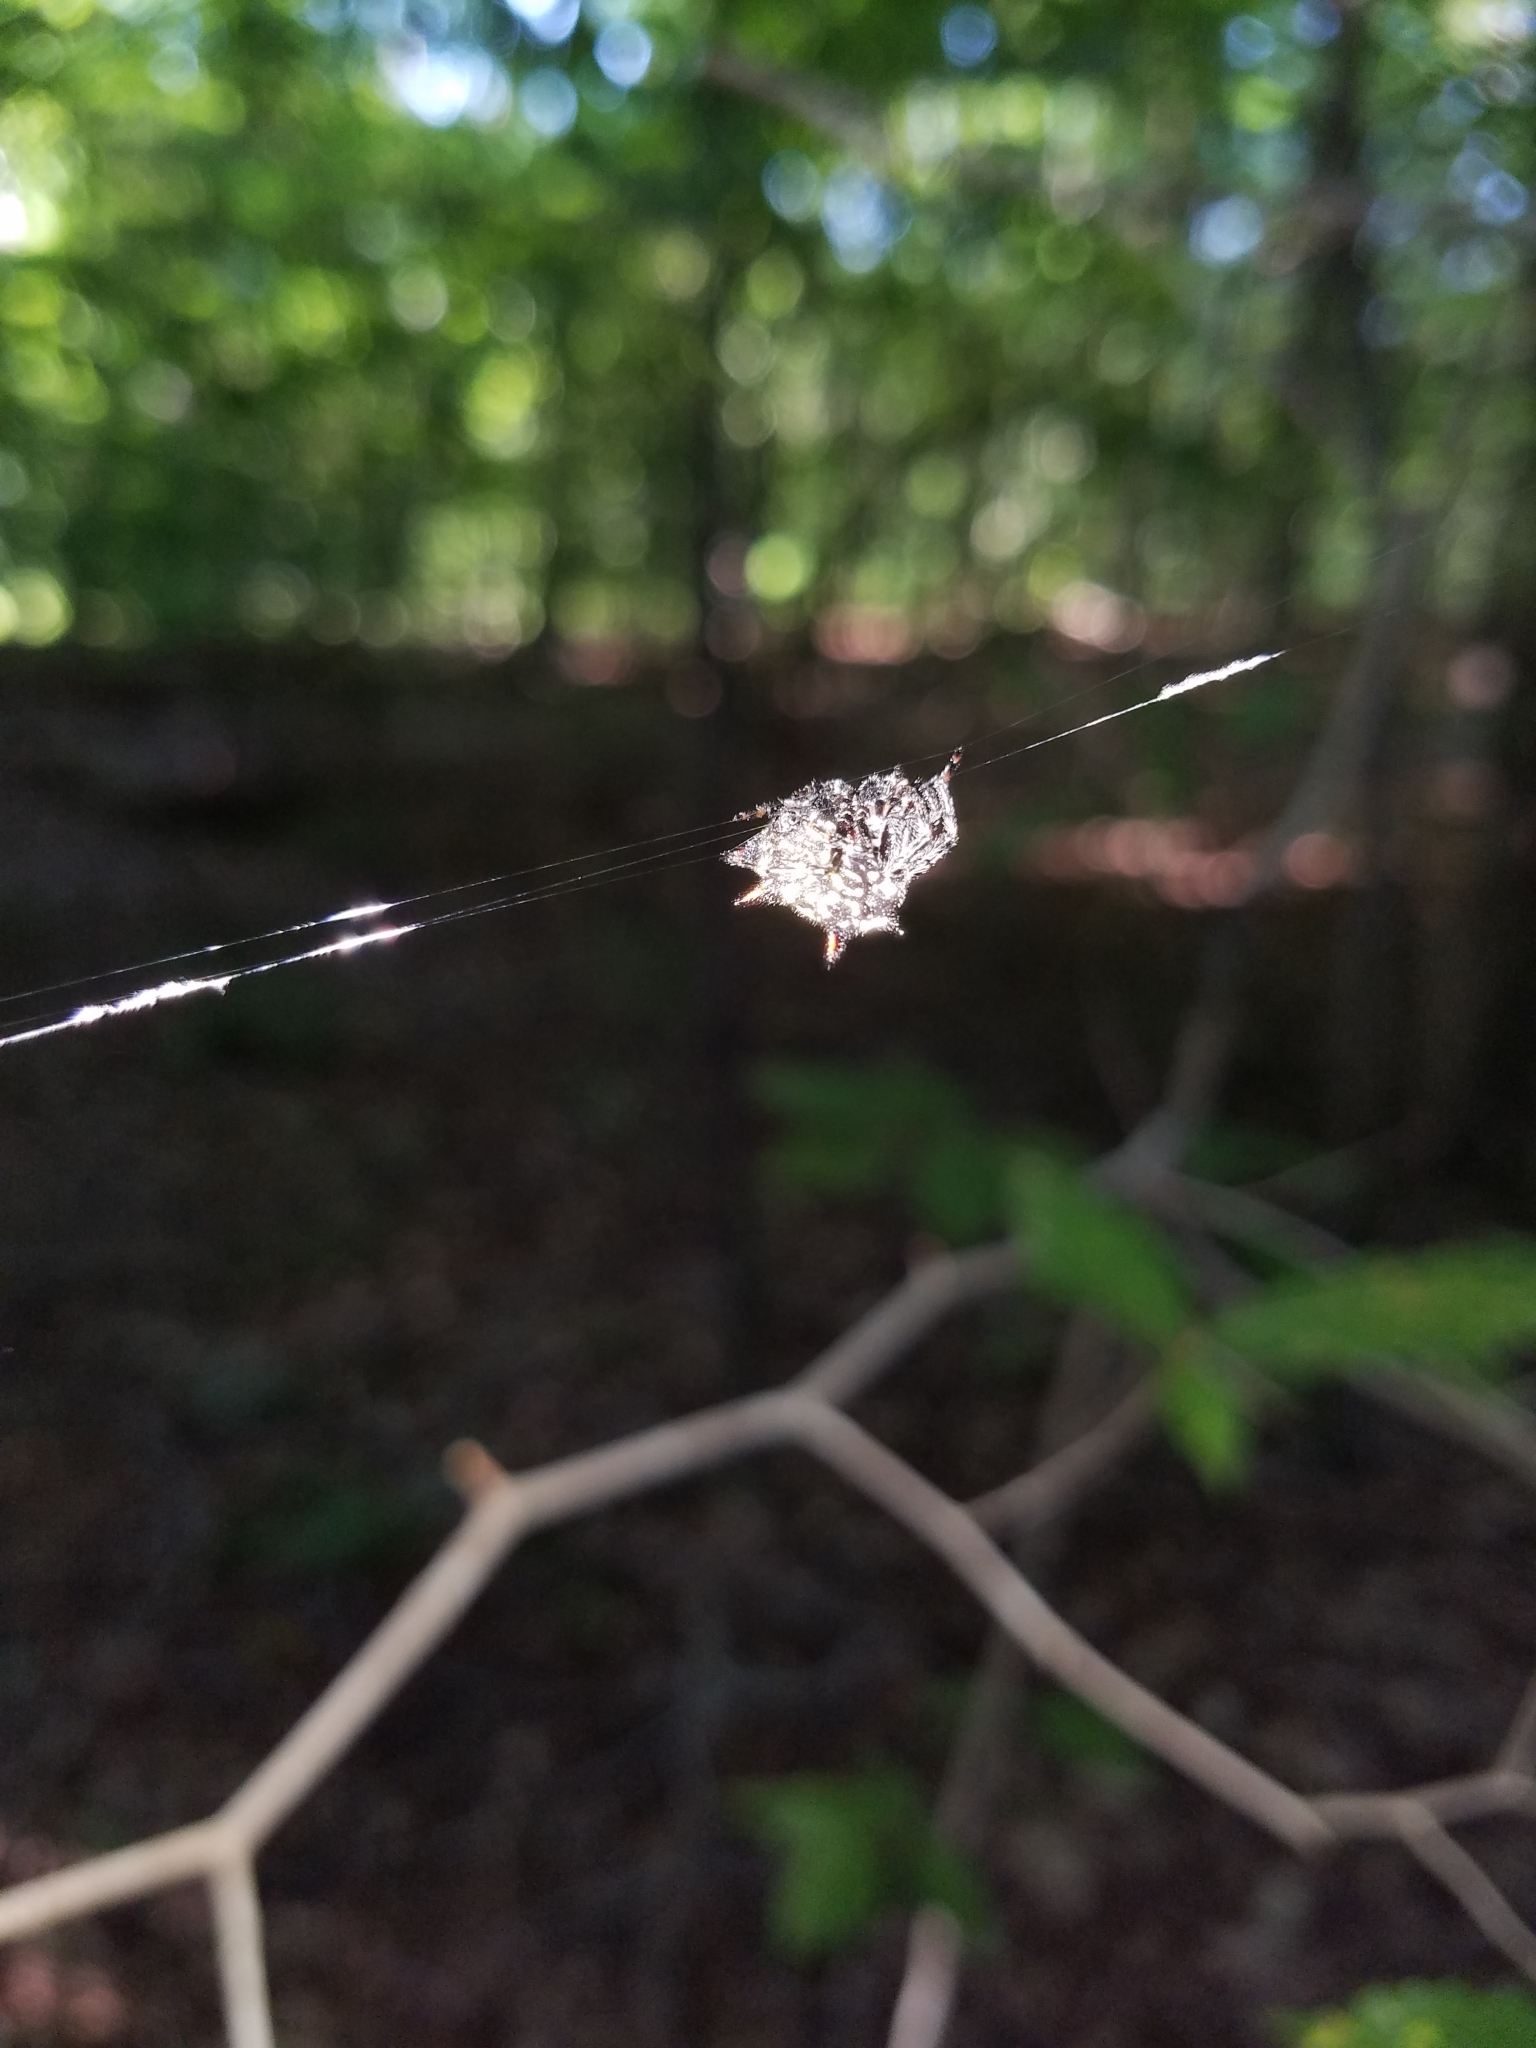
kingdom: Animalia
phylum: Arthropoda
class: Arachnida
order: Araneae
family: Araneidae
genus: Gasteracantha
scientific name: Gasteracantha cancriformis
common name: Orb weavers
